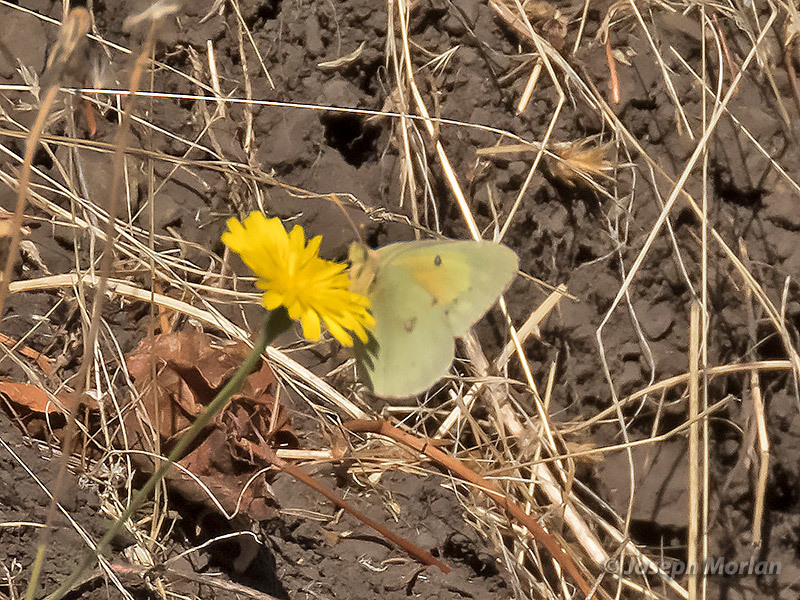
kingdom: Animalia
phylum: Arthropoda
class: Insecta
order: Lepidoptera
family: Pieridae
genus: Colias
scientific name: Colias eurytheme
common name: Alfalfa butterfly
